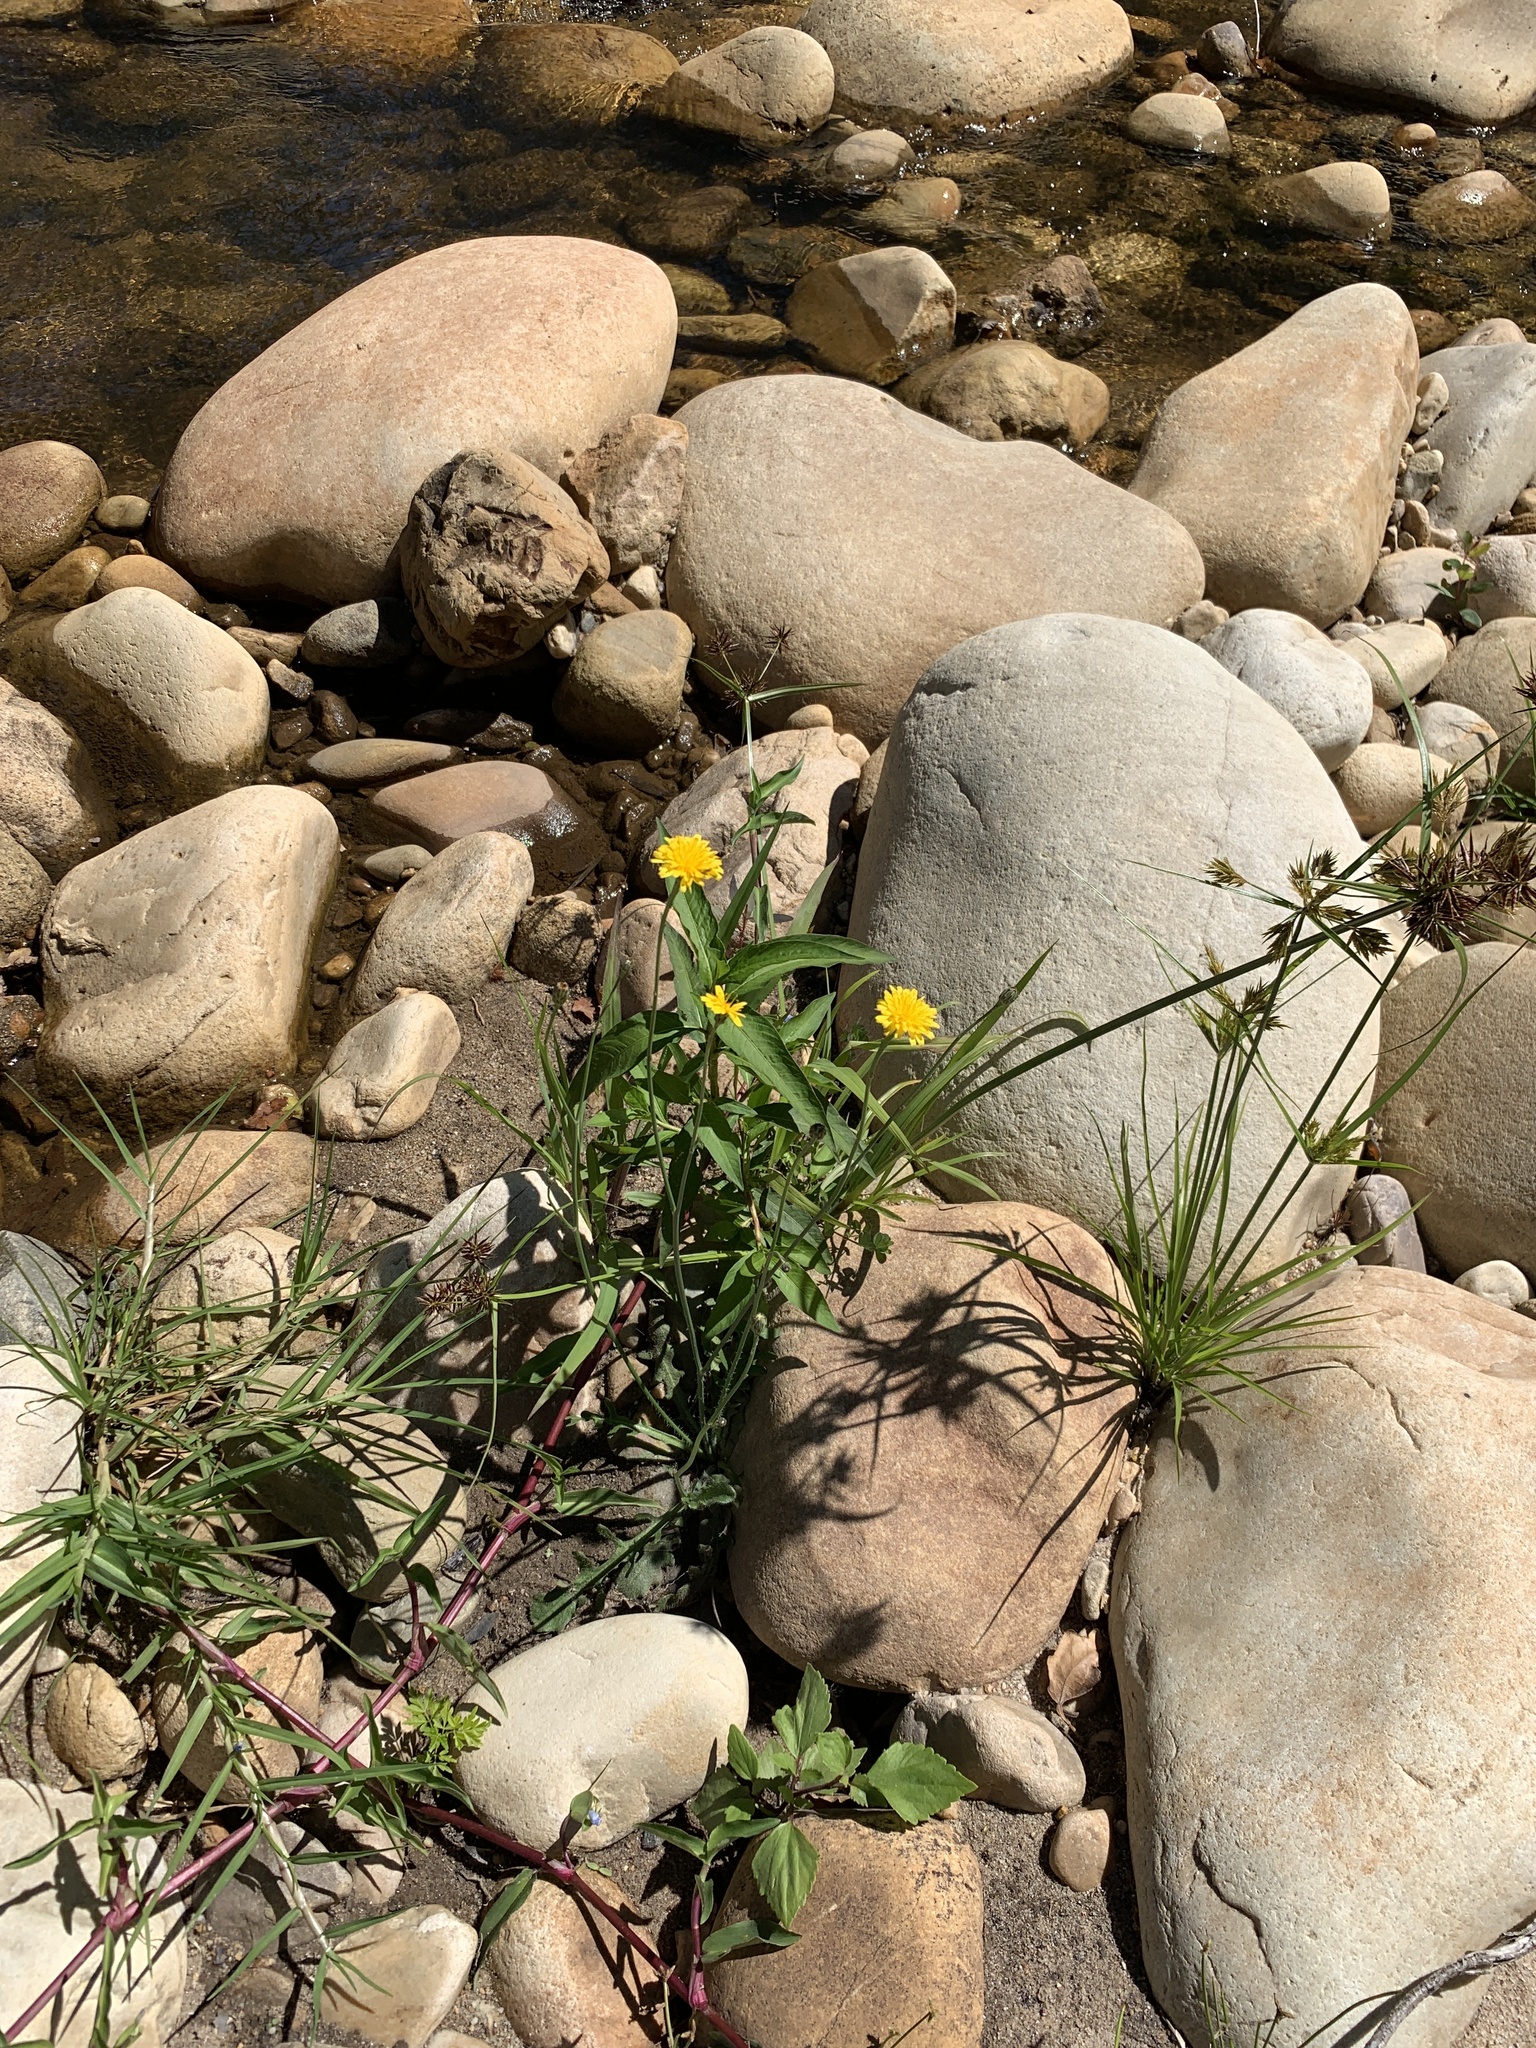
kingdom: Plantae
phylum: Tracheophyta
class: Magnoliopsida
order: Asterales
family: Asteraceae
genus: Hypochaeris
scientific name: Hypochaeris radicata
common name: Flatweed
